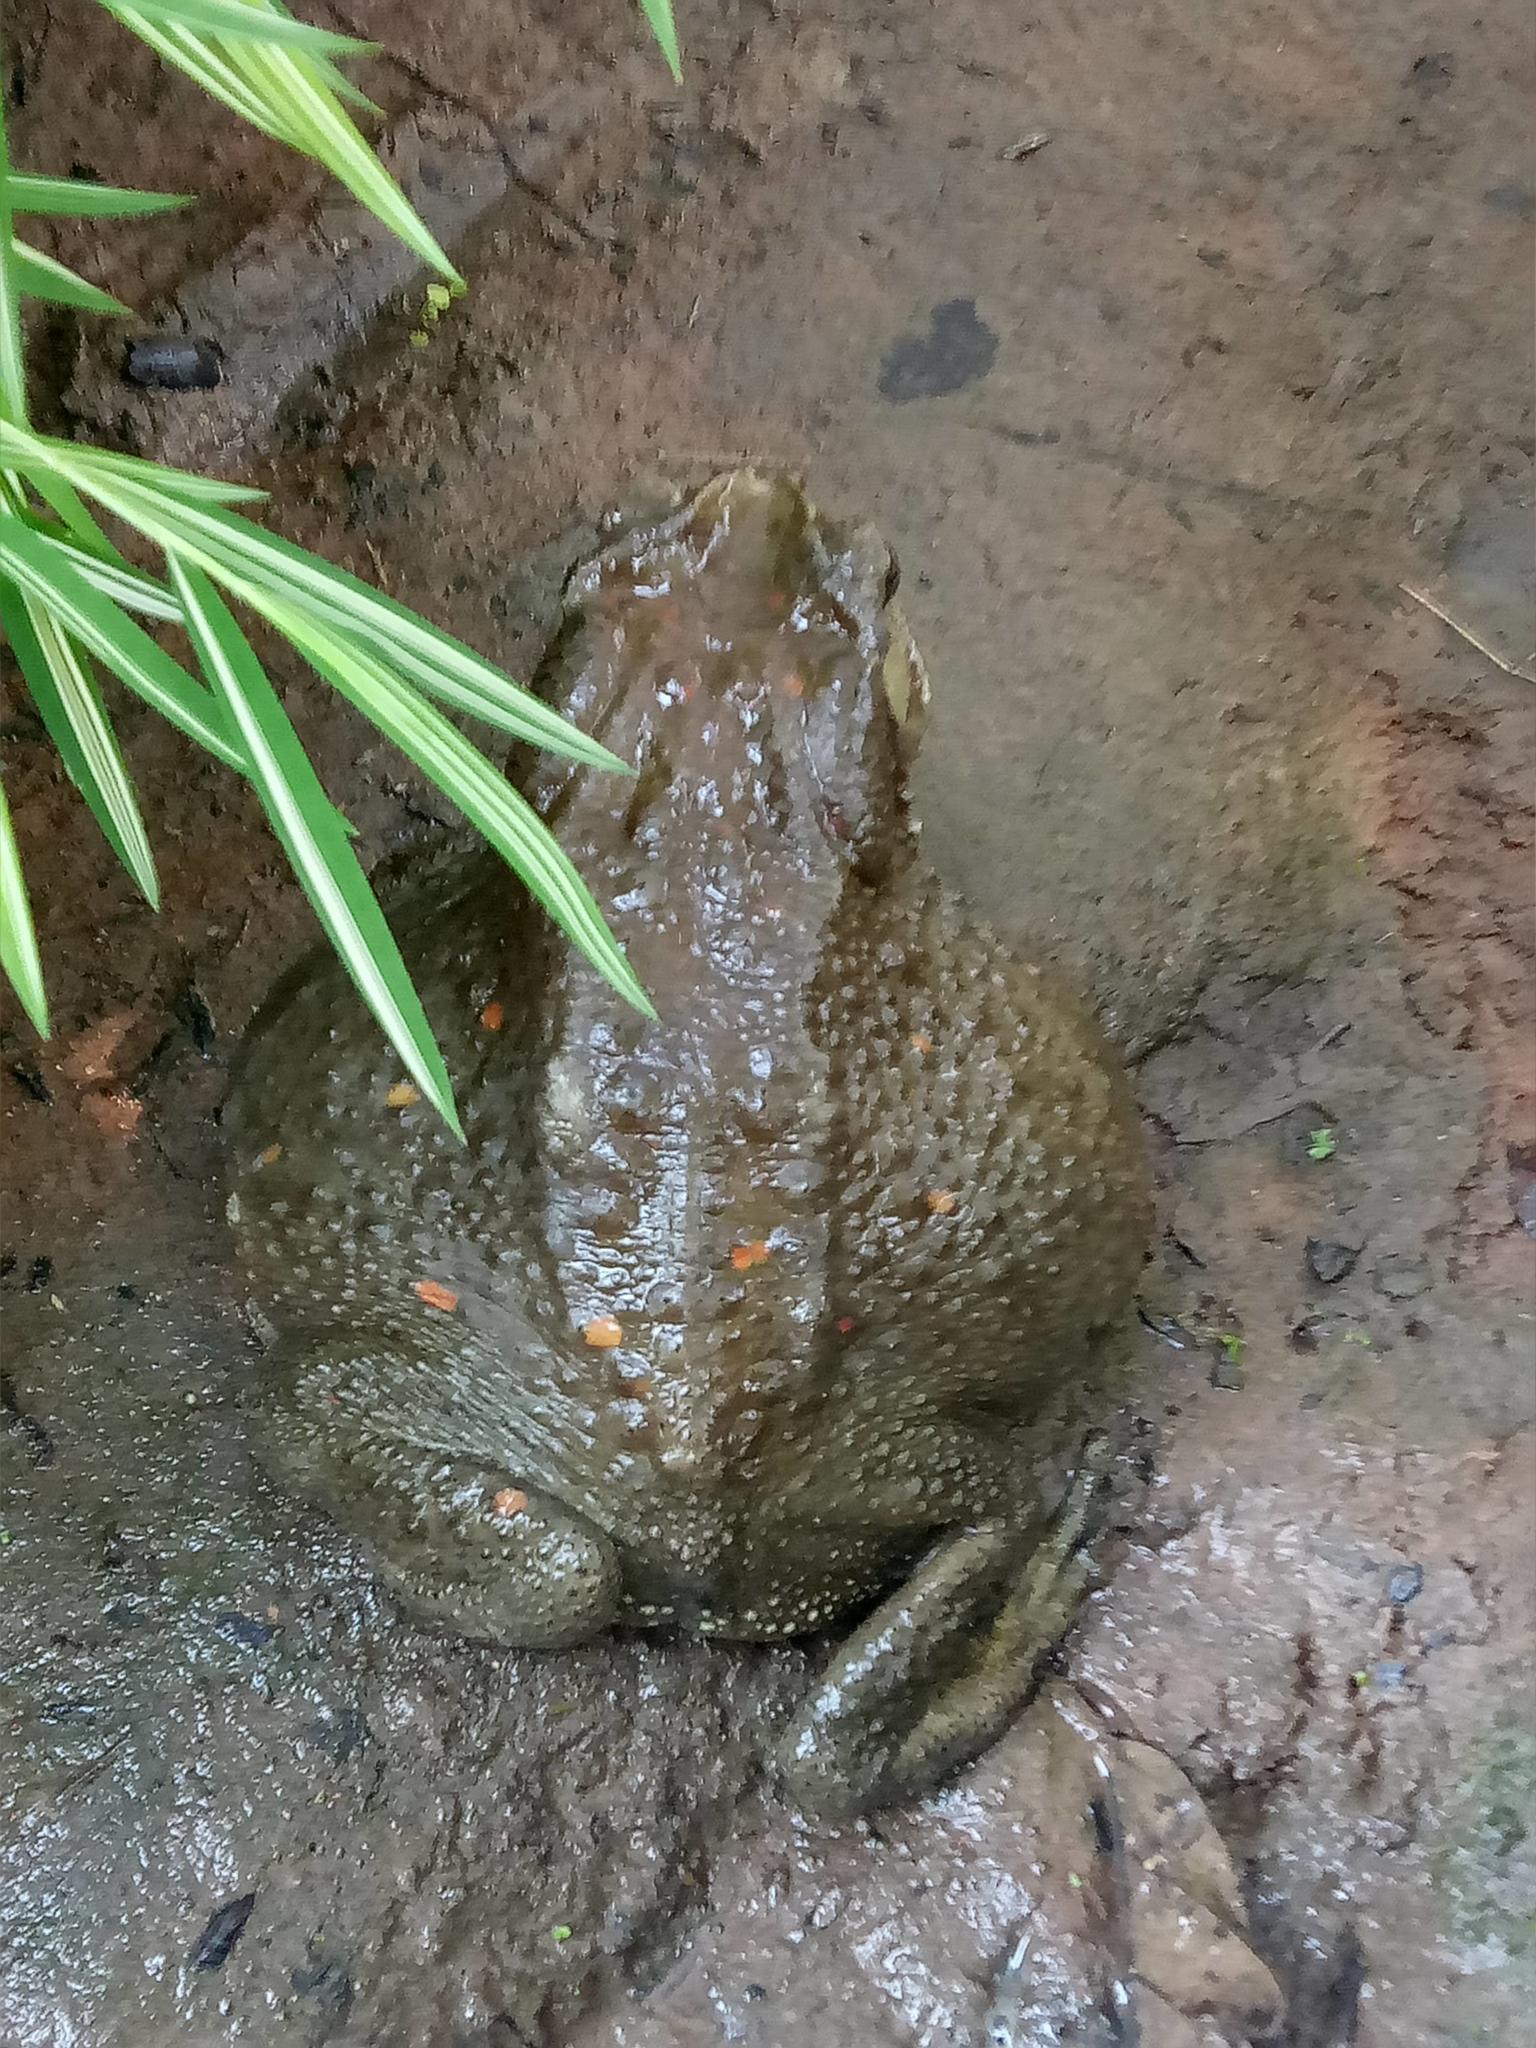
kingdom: Animalia
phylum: Chordata
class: Amphibia
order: Anura
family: Bufonidae
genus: Duttaphrynus
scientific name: Duttaphrynus melanostictus
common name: Common sunda toad
